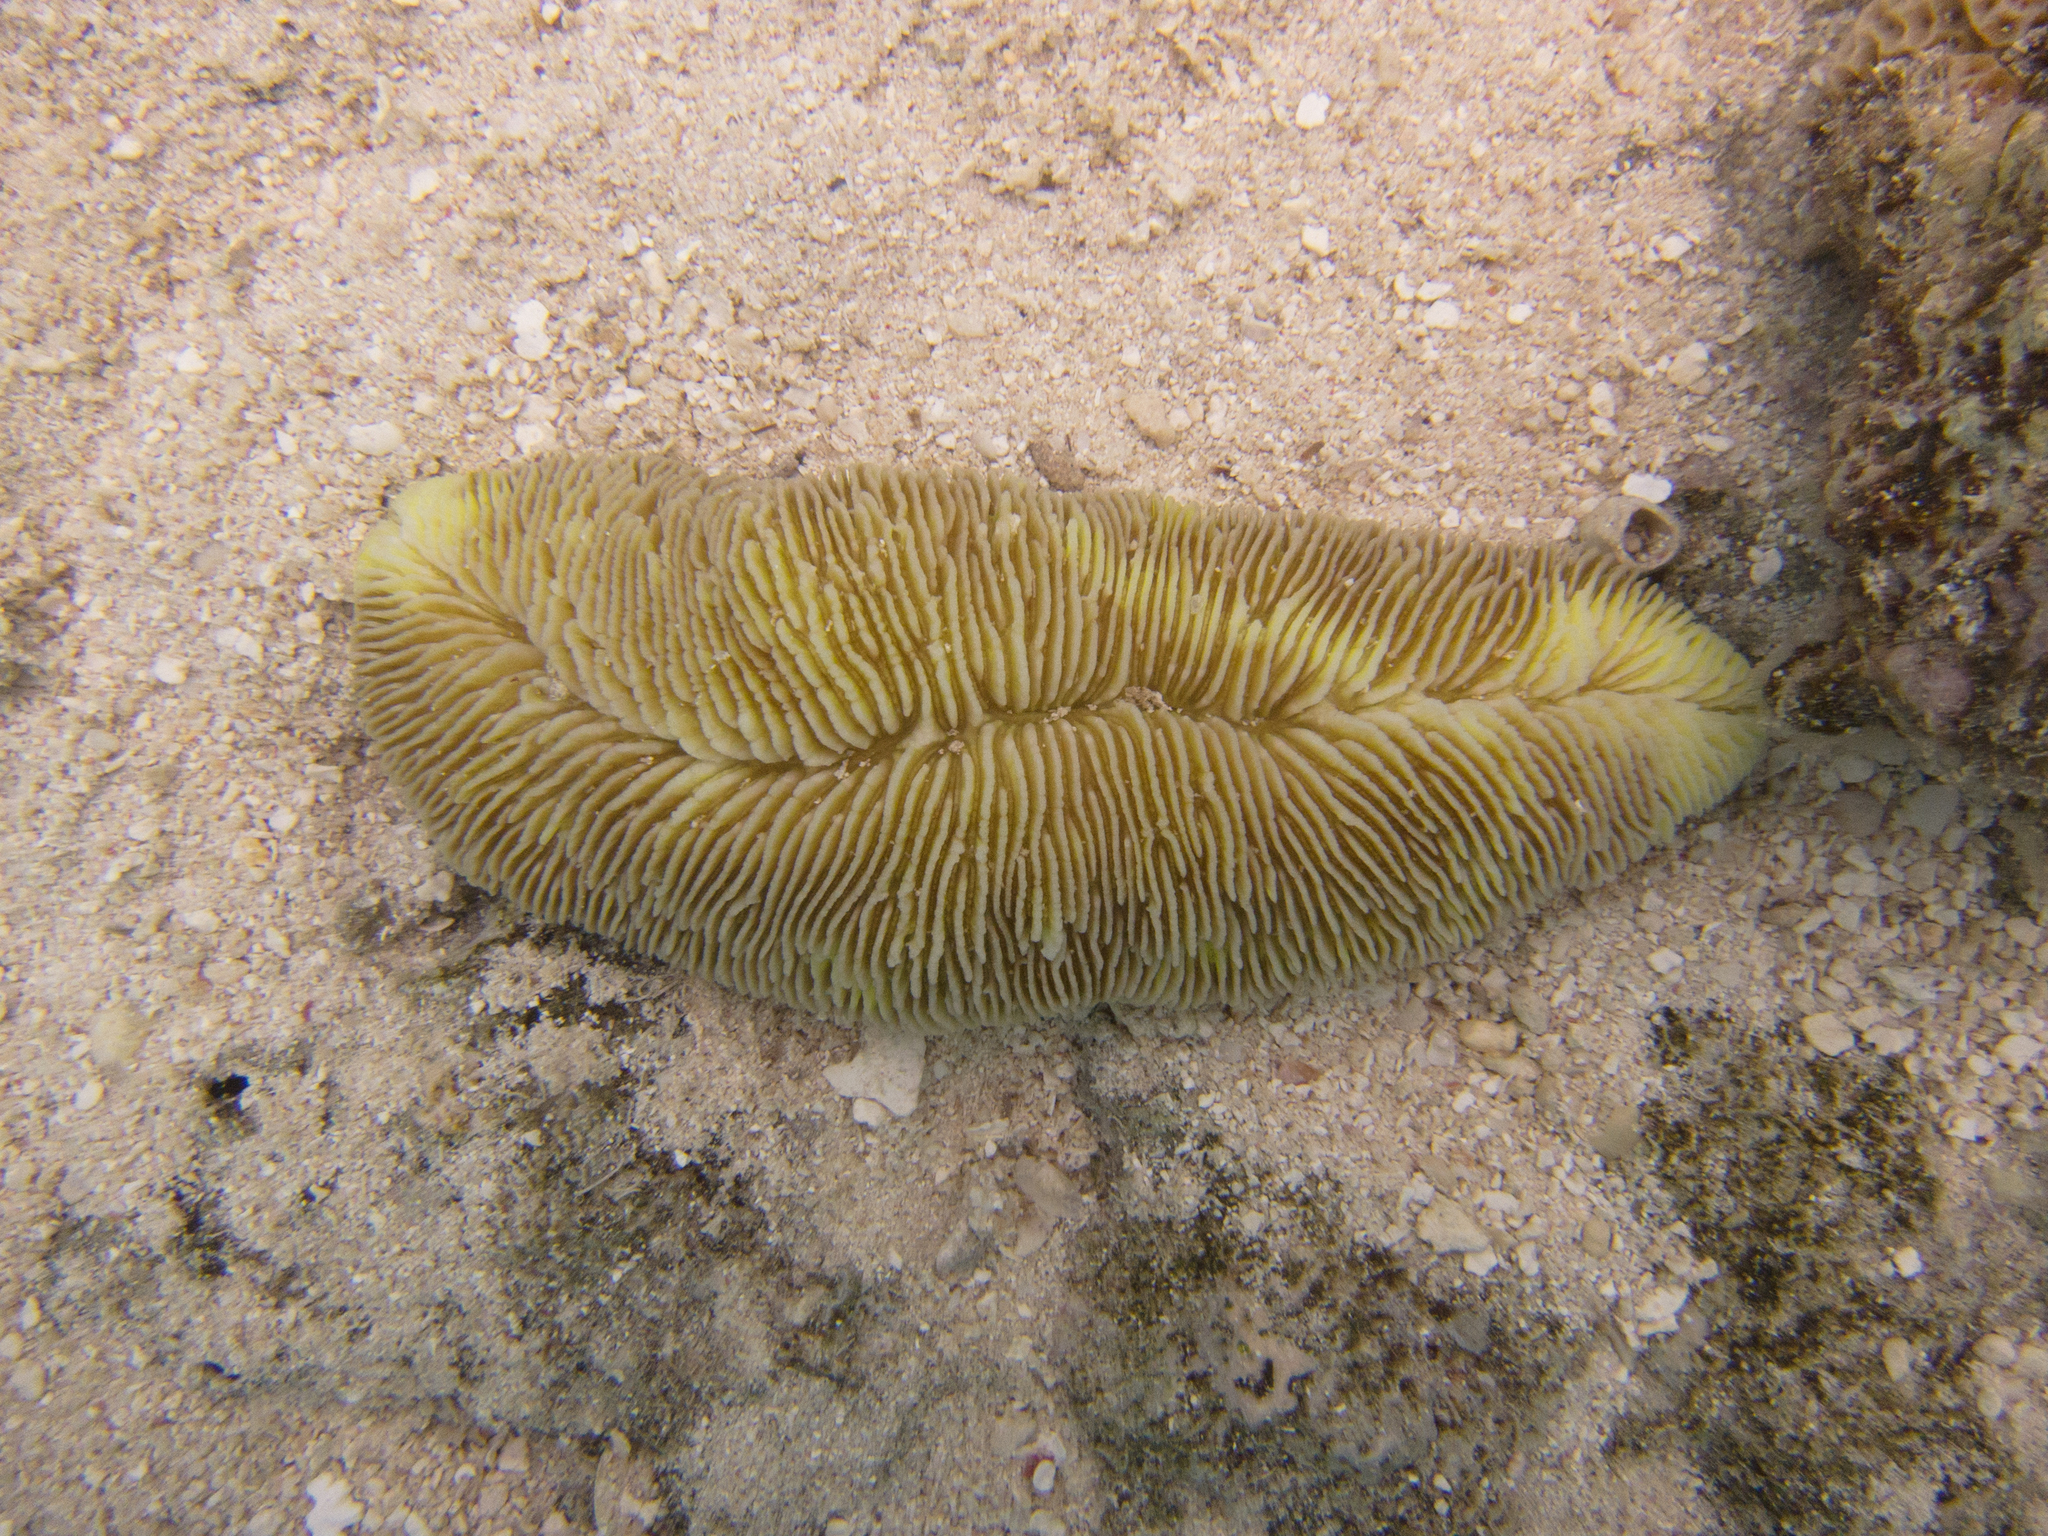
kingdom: Animalia
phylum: Cnidaria
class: Anthozoa
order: Scleractinia
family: Fungiidae
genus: Herpolitha
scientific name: Herpolitha limax
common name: Striate boomerang coral
